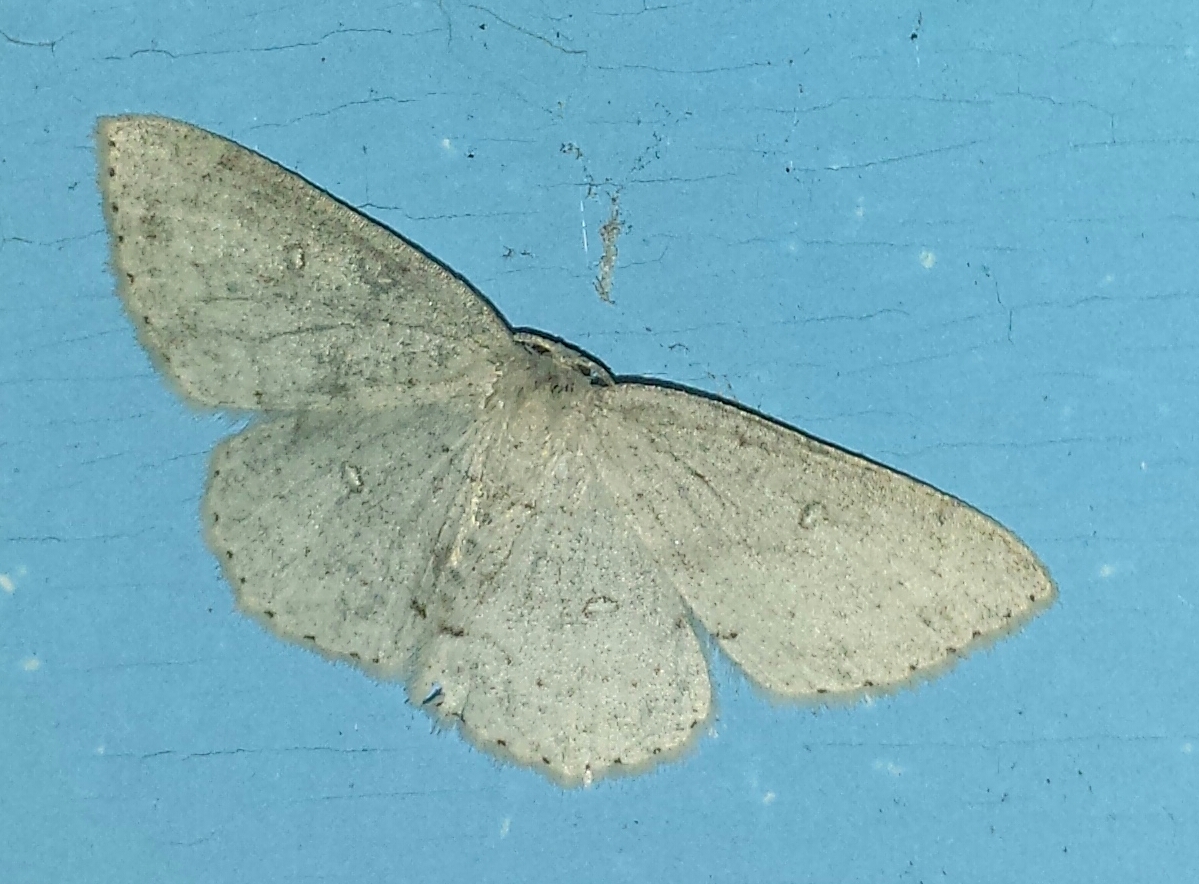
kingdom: Animalia
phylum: Arthropoda
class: Insecta
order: Lepidoptera
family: Geometridae
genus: Cyclophora
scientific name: Cyclophora pendulinaria
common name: Sweet fern geometer
